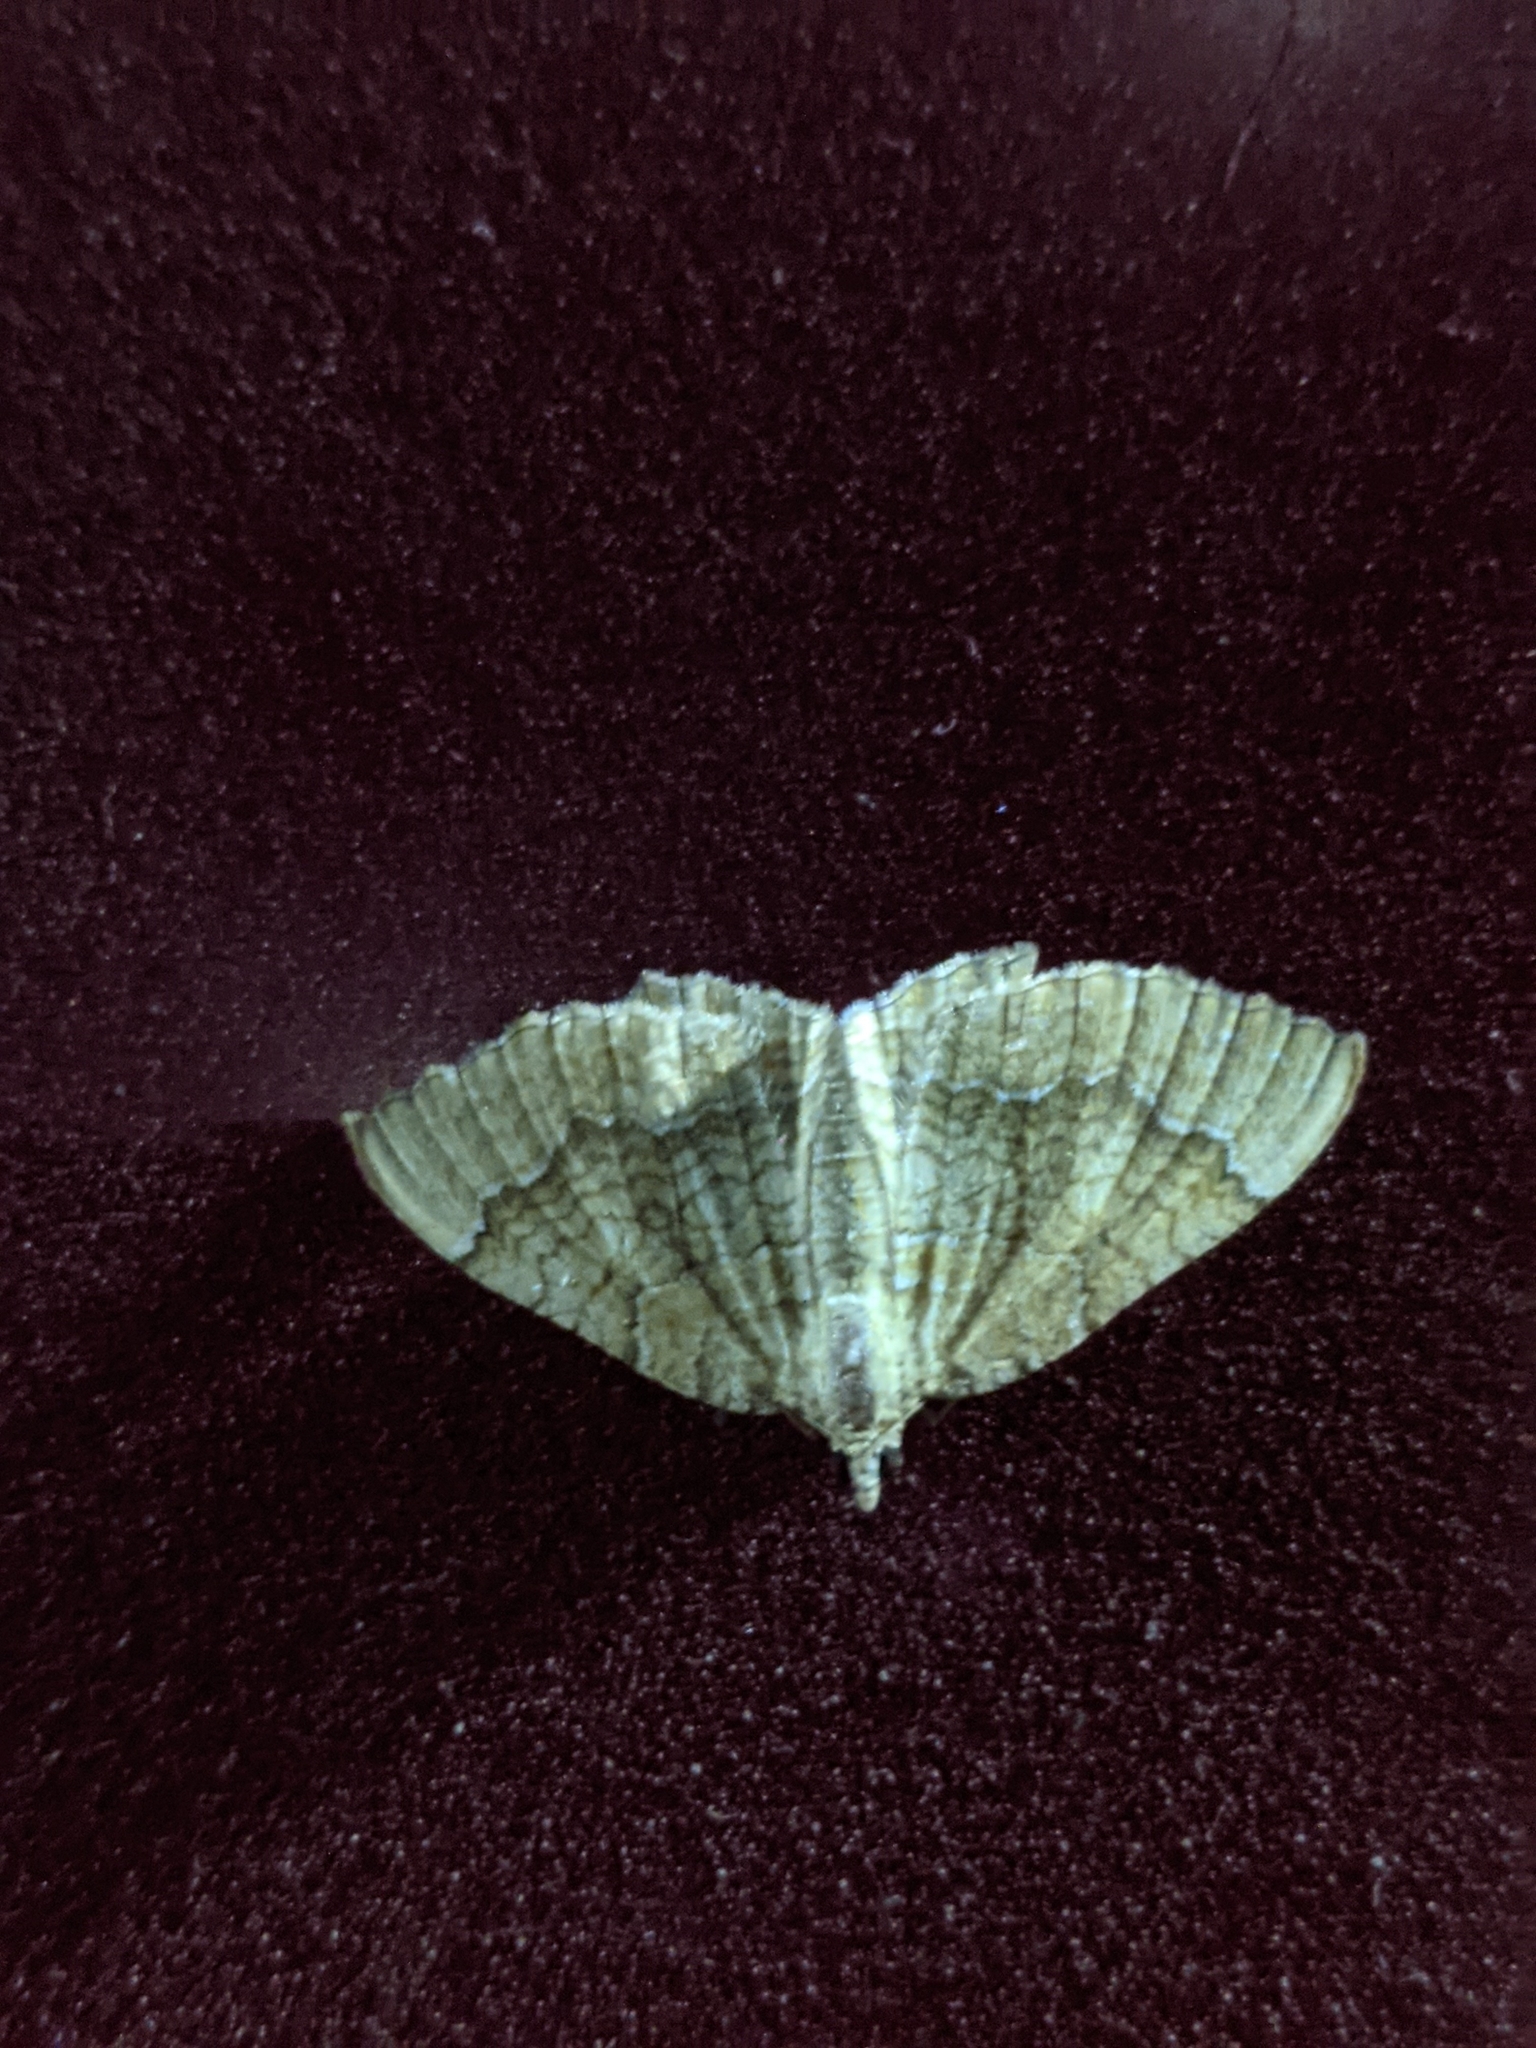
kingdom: Animalia
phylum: Arthropoda
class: Insecta
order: Lepidoptera
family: Geometridae
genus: Camptogramma
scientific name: Camptogramma bilineata
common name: Yellow shell
